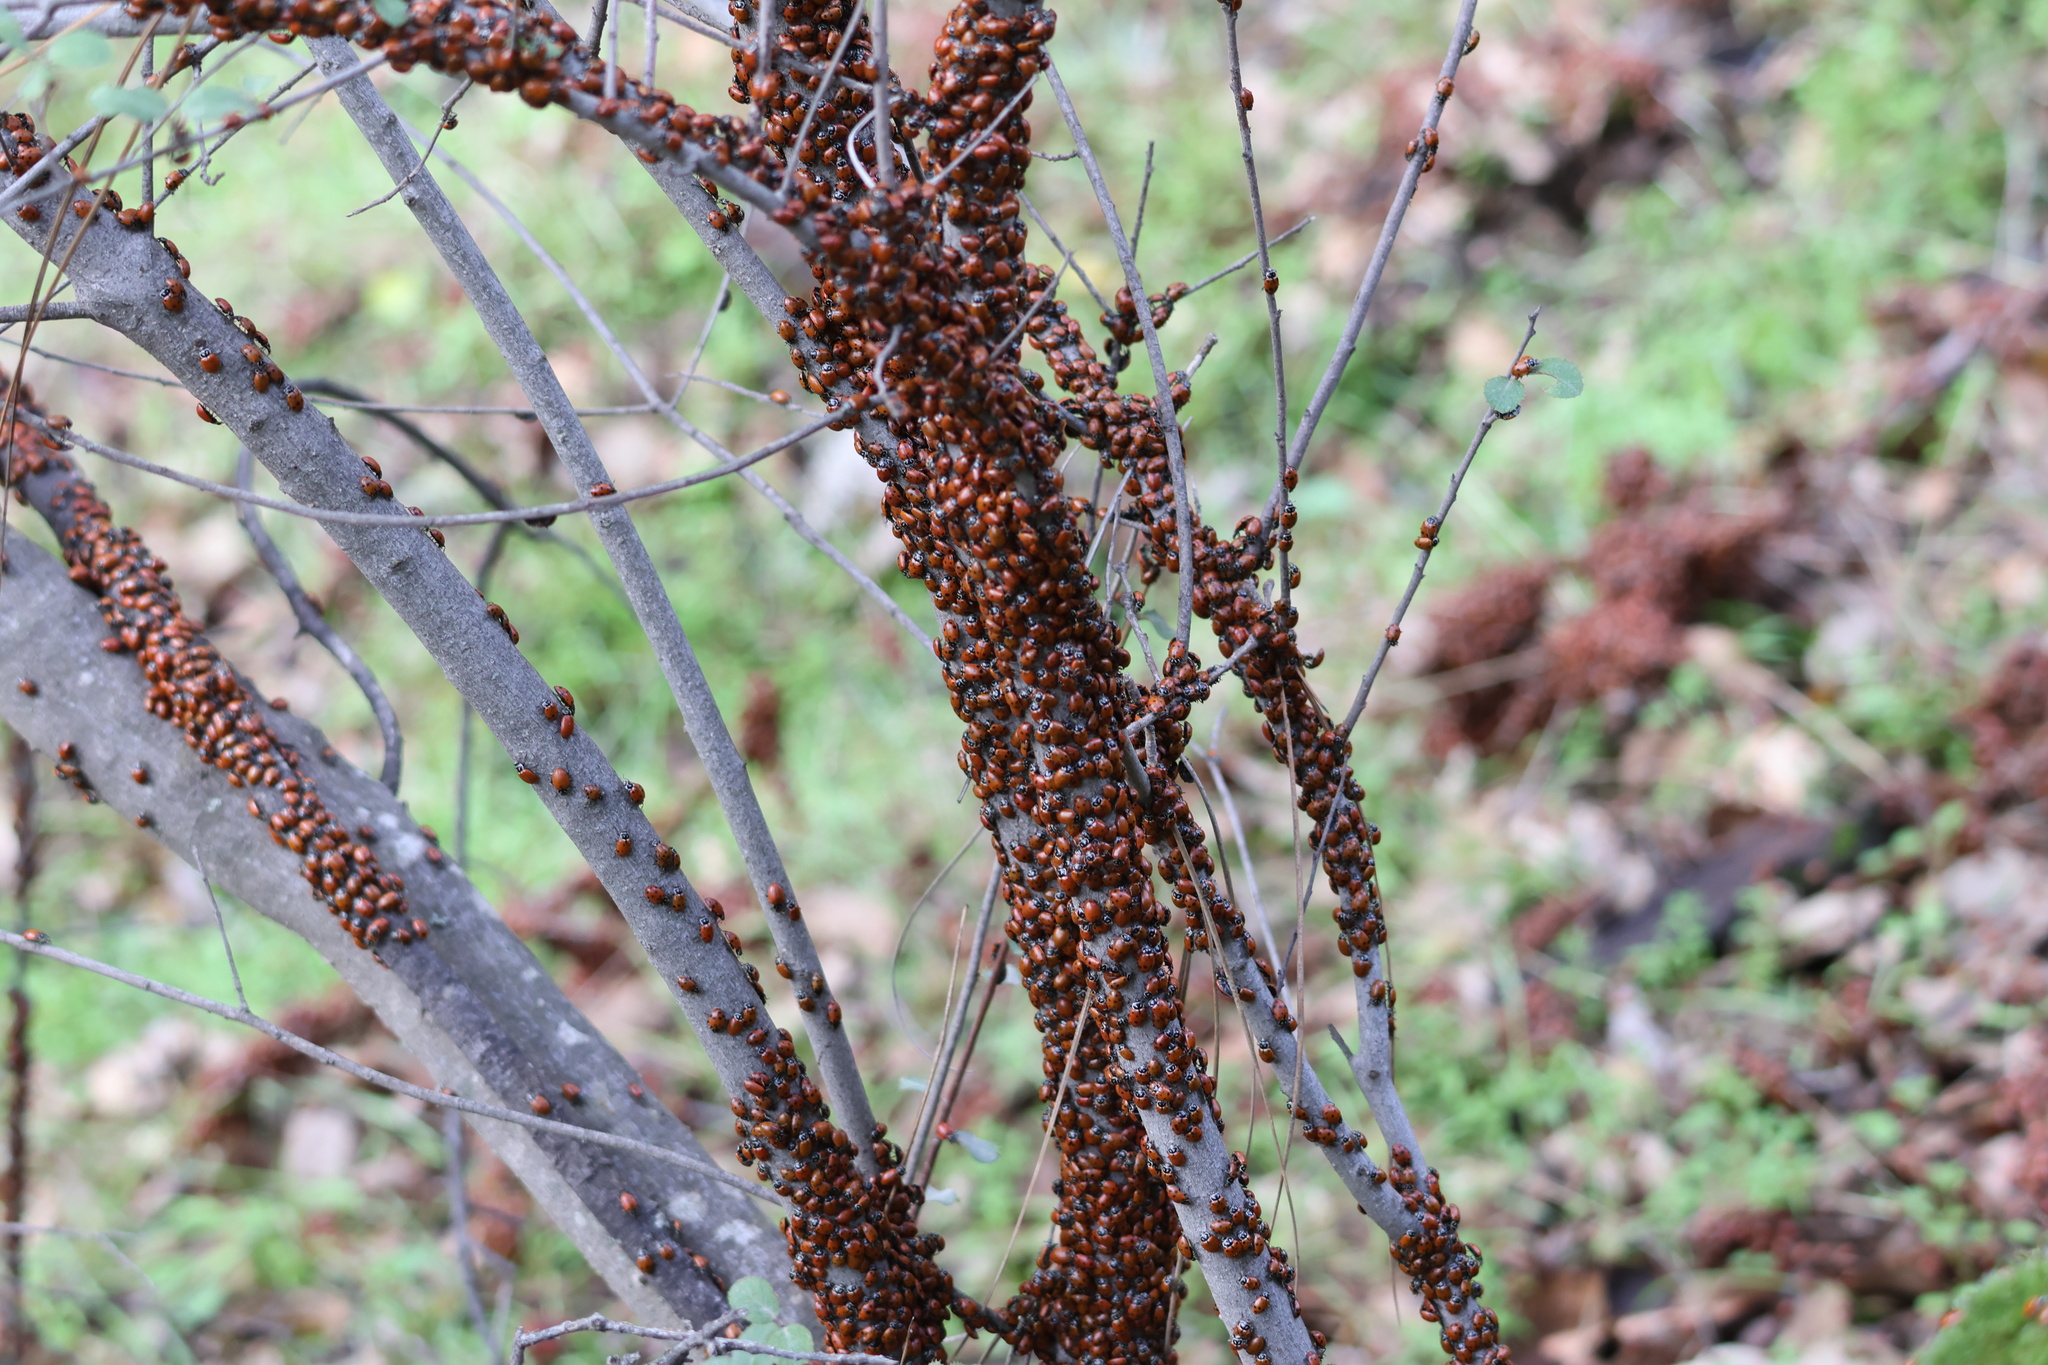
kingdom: Animalia
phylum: Arthropoda
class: Insecta
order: Coleoptera
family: Coccinellidae
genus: Hippodamia
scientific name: Hippodamia convergens
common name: Convergent lady beetle
